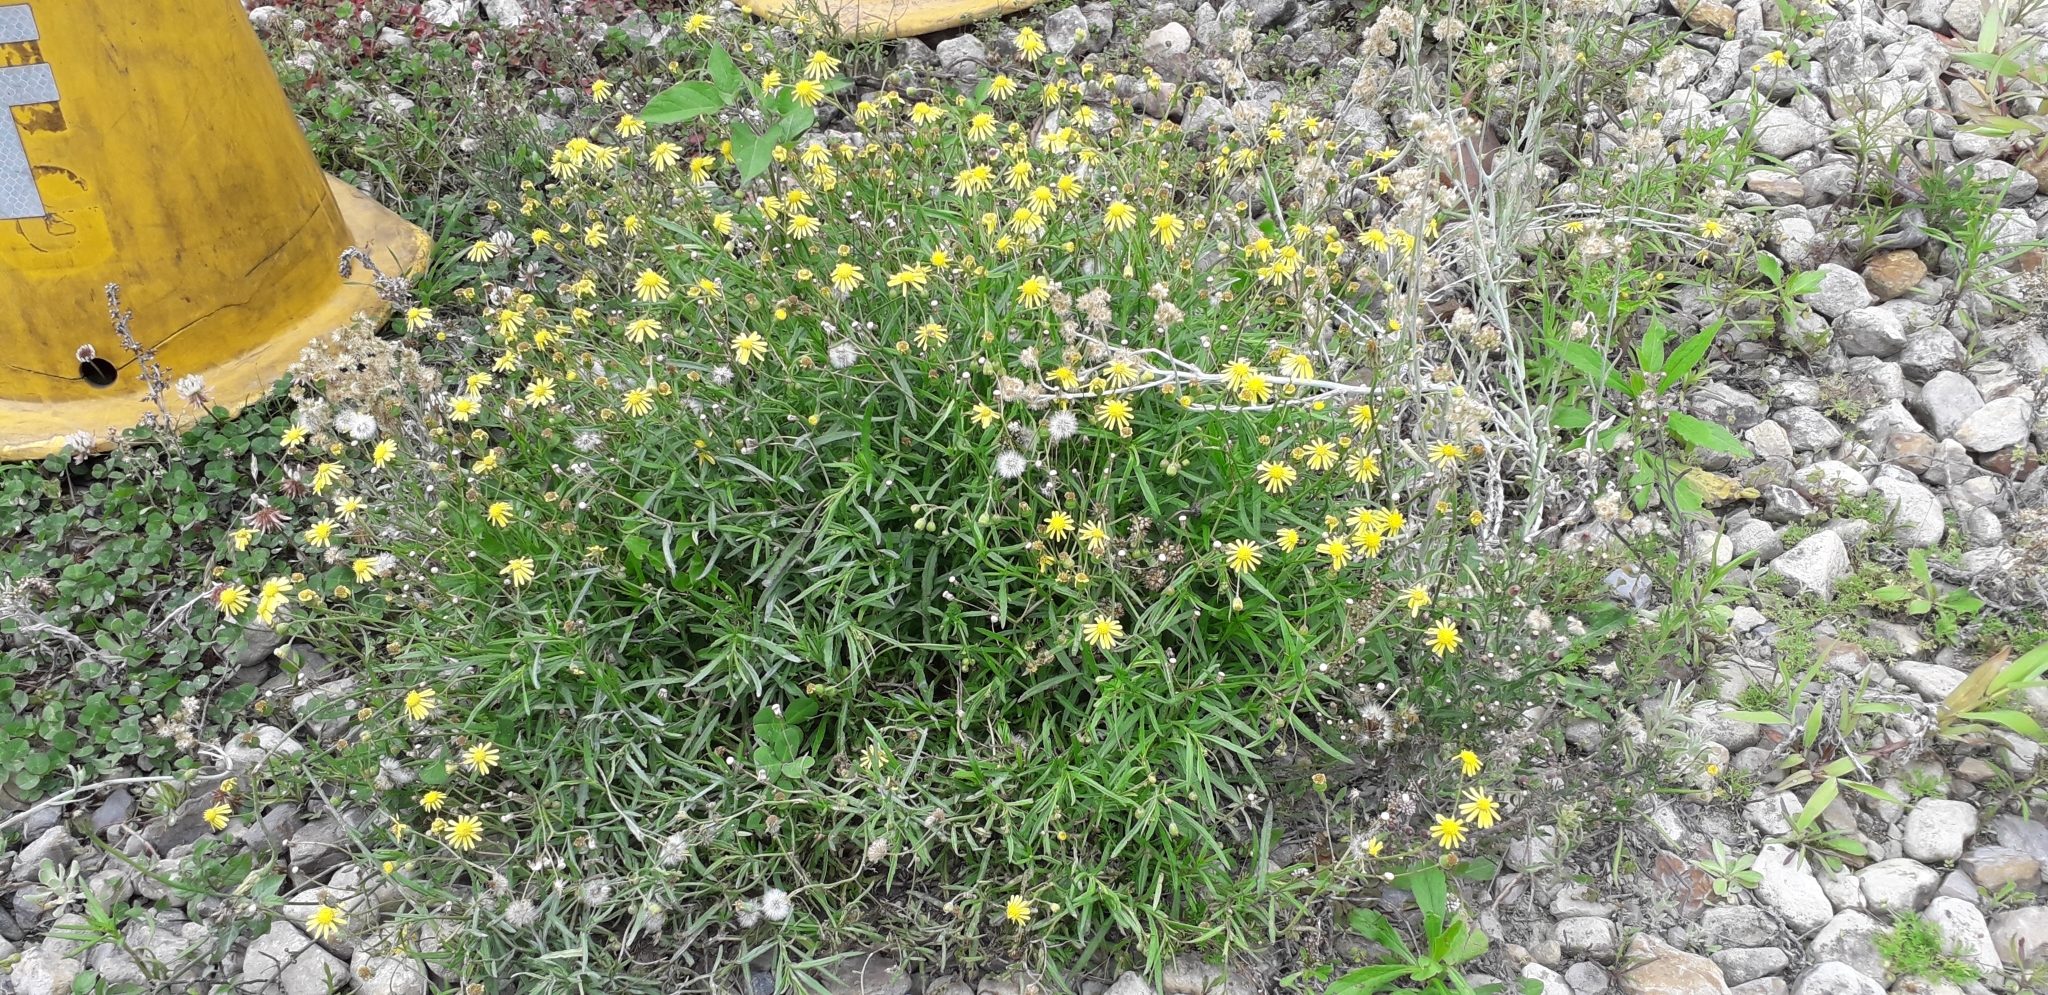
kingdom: Plantae
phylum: Tracheophyta
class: Magnoliopsida
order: Asterales
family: Asteraceae
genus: Senecio
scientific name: Senecio madagascariensis
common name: Madagascar ragwort
